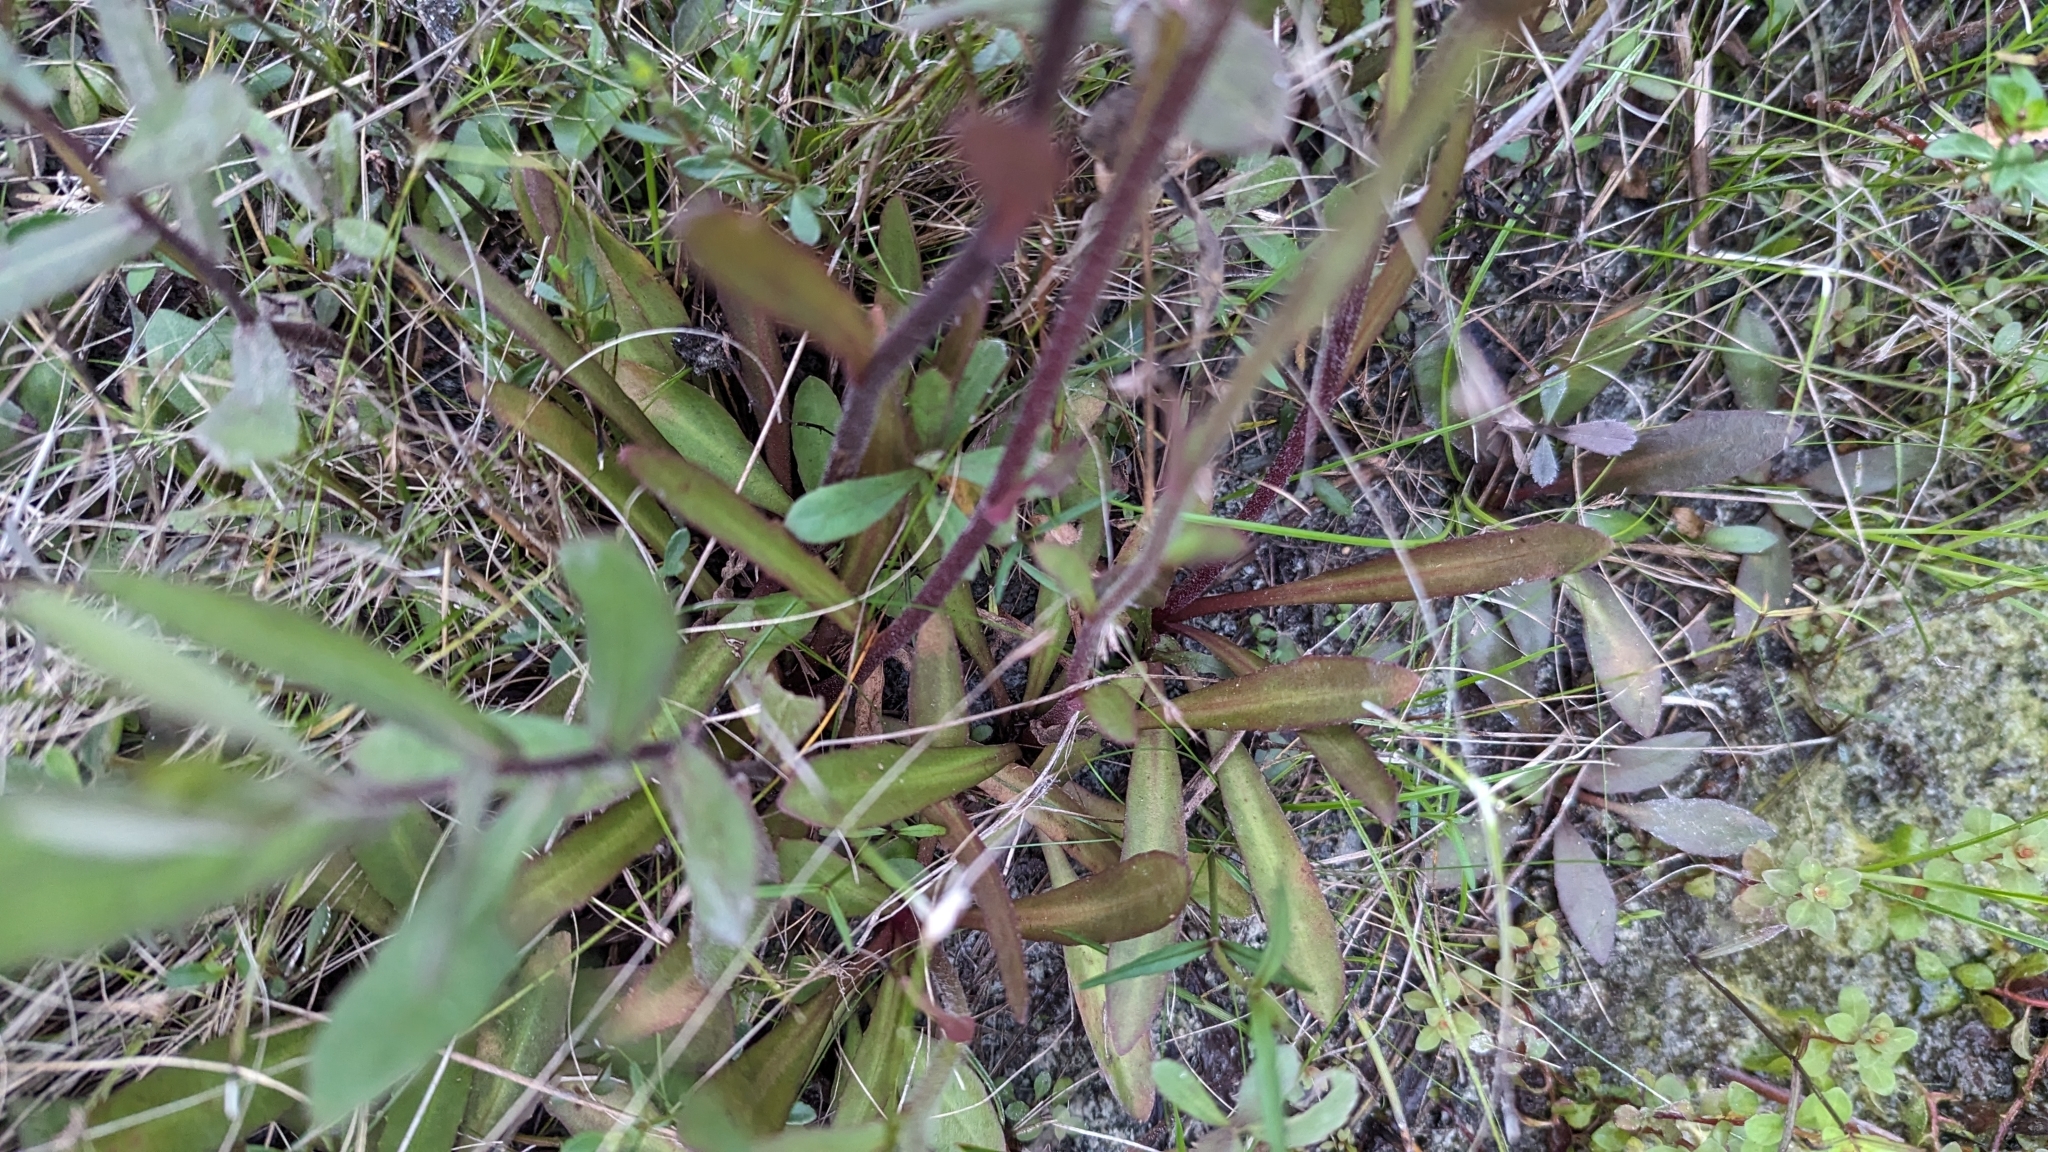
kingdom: Plantae
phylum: Tracheophyta
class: Magnoliopsida
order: Asterales
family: Asteraceae
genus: Helenium
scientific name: Helenium pinnatifidum
